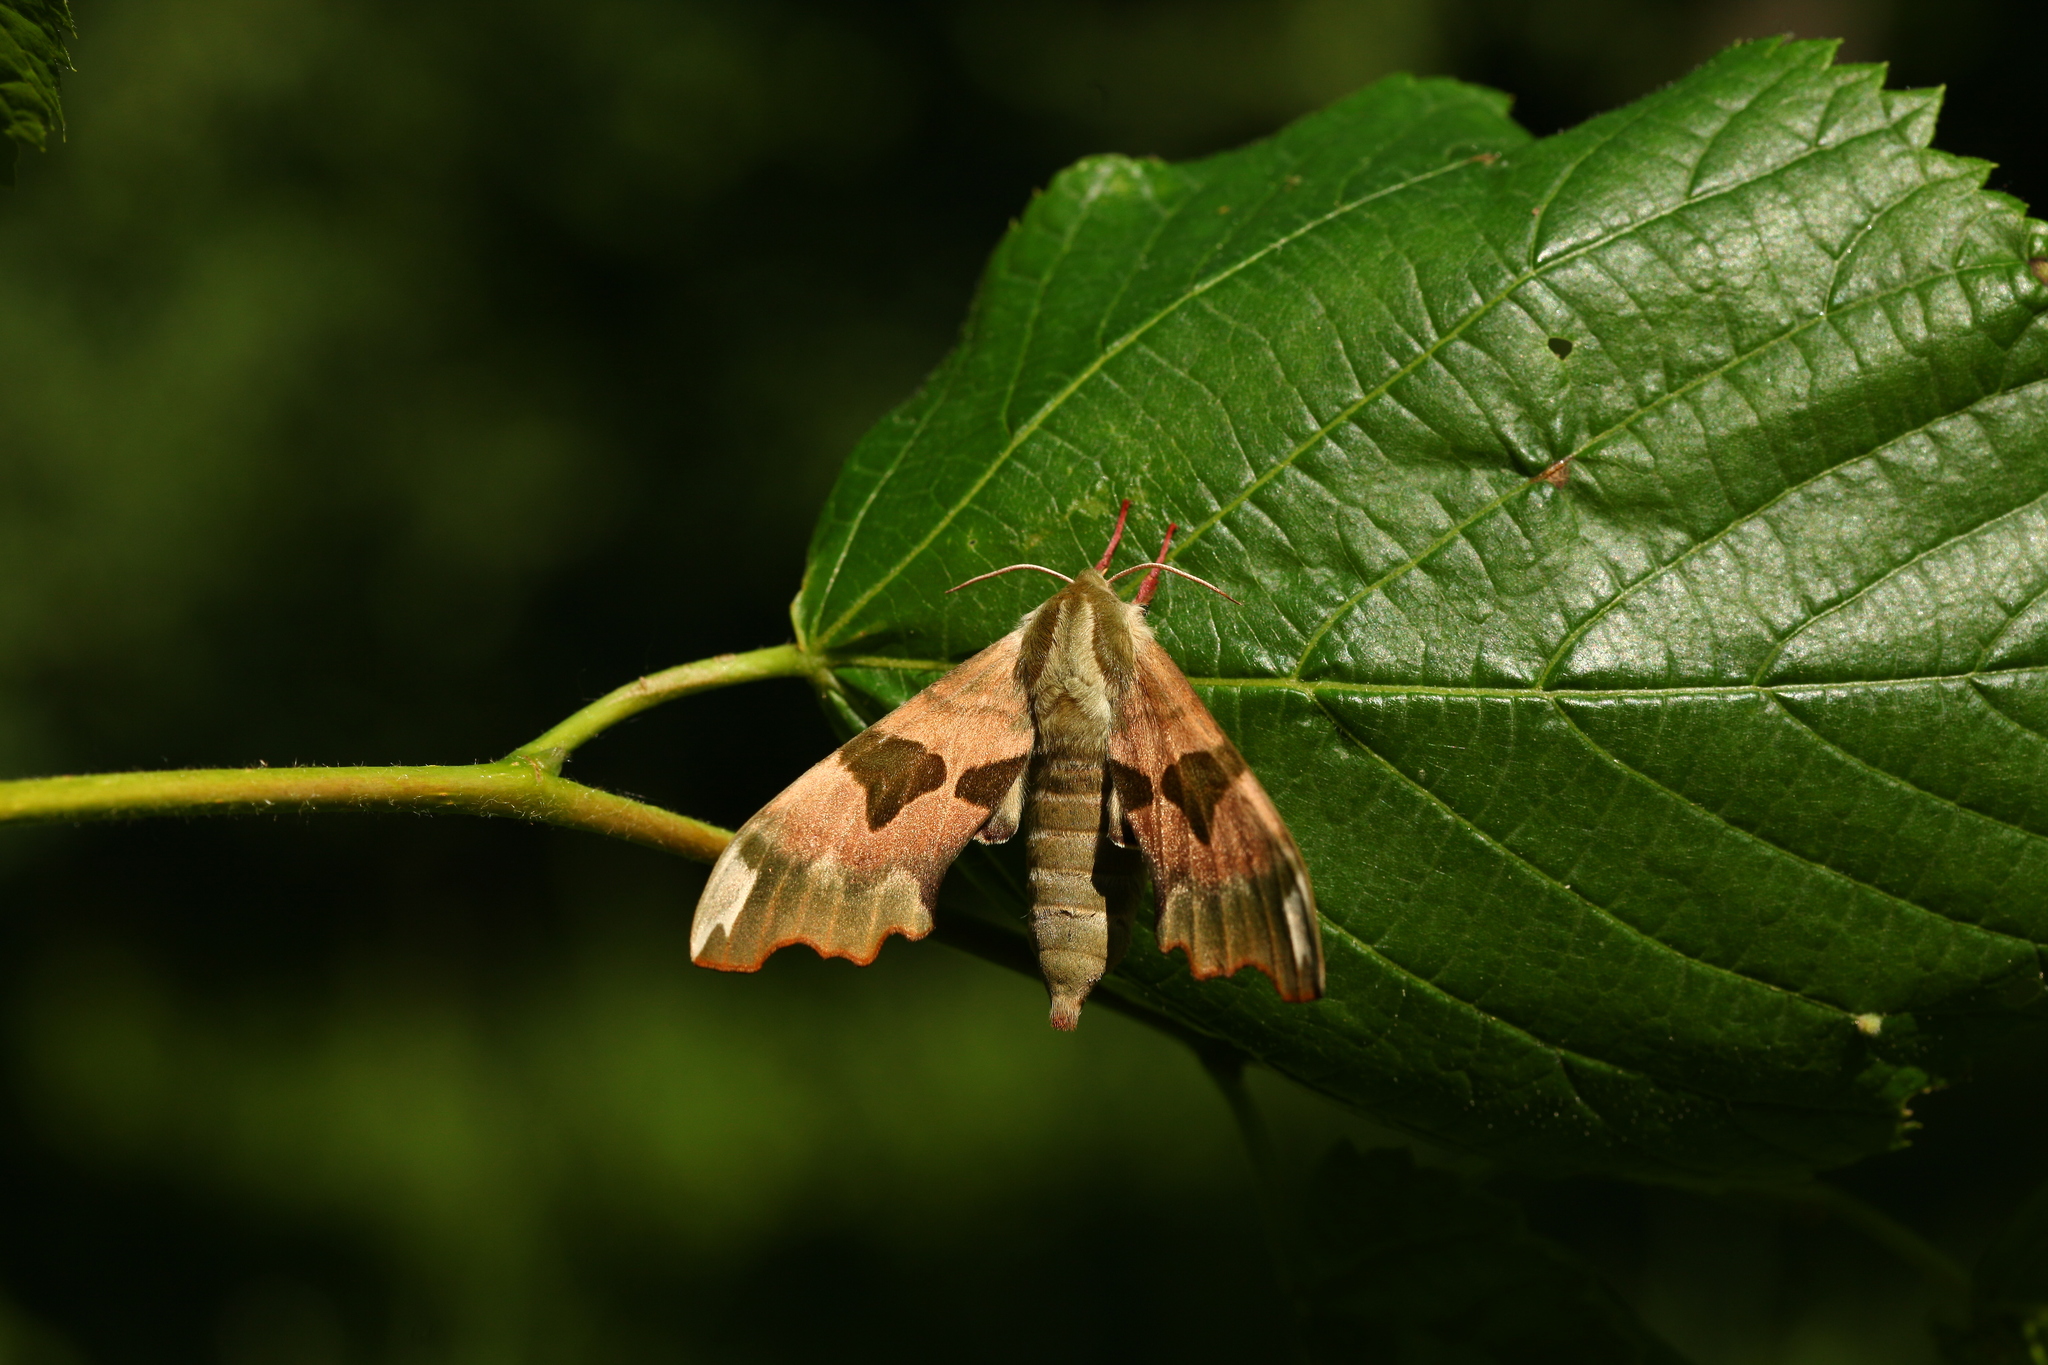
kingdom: Animalia
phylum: Arthropoda
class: Insecta
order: Lepidoptera
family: Sphingidae
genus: Mimas
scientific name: Mimas tiliae
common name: Lime hawk-moth
